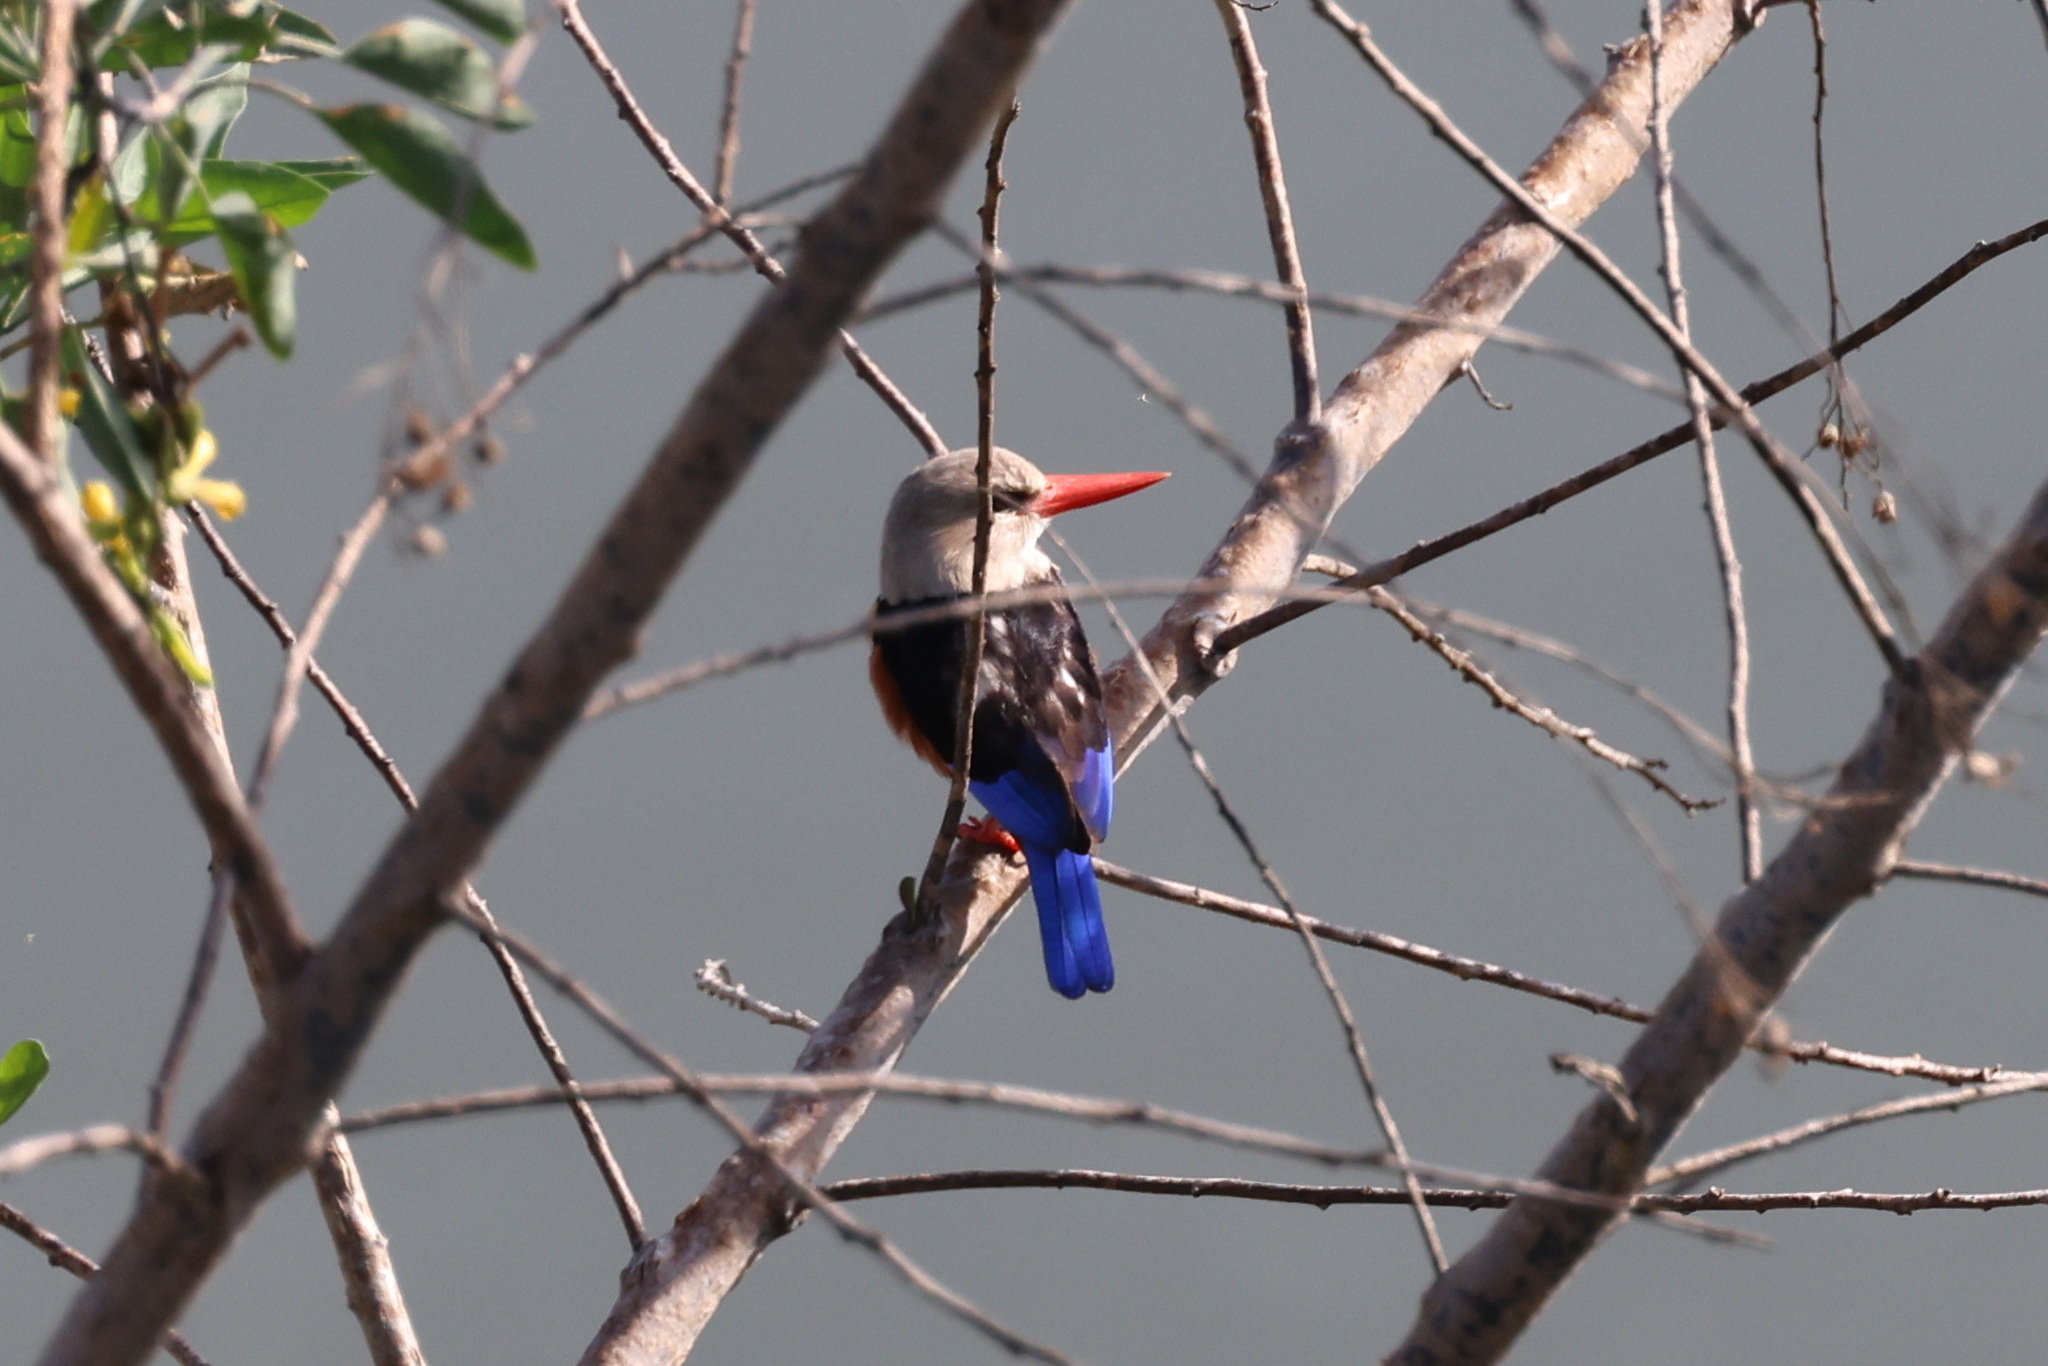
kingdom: Animalia
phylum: Chordata
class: Aves
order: Coraciiformes
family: Alcedinidae
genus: Halcyon
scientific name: Halcyon leucocephala
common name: Grey-headed kingfisher
